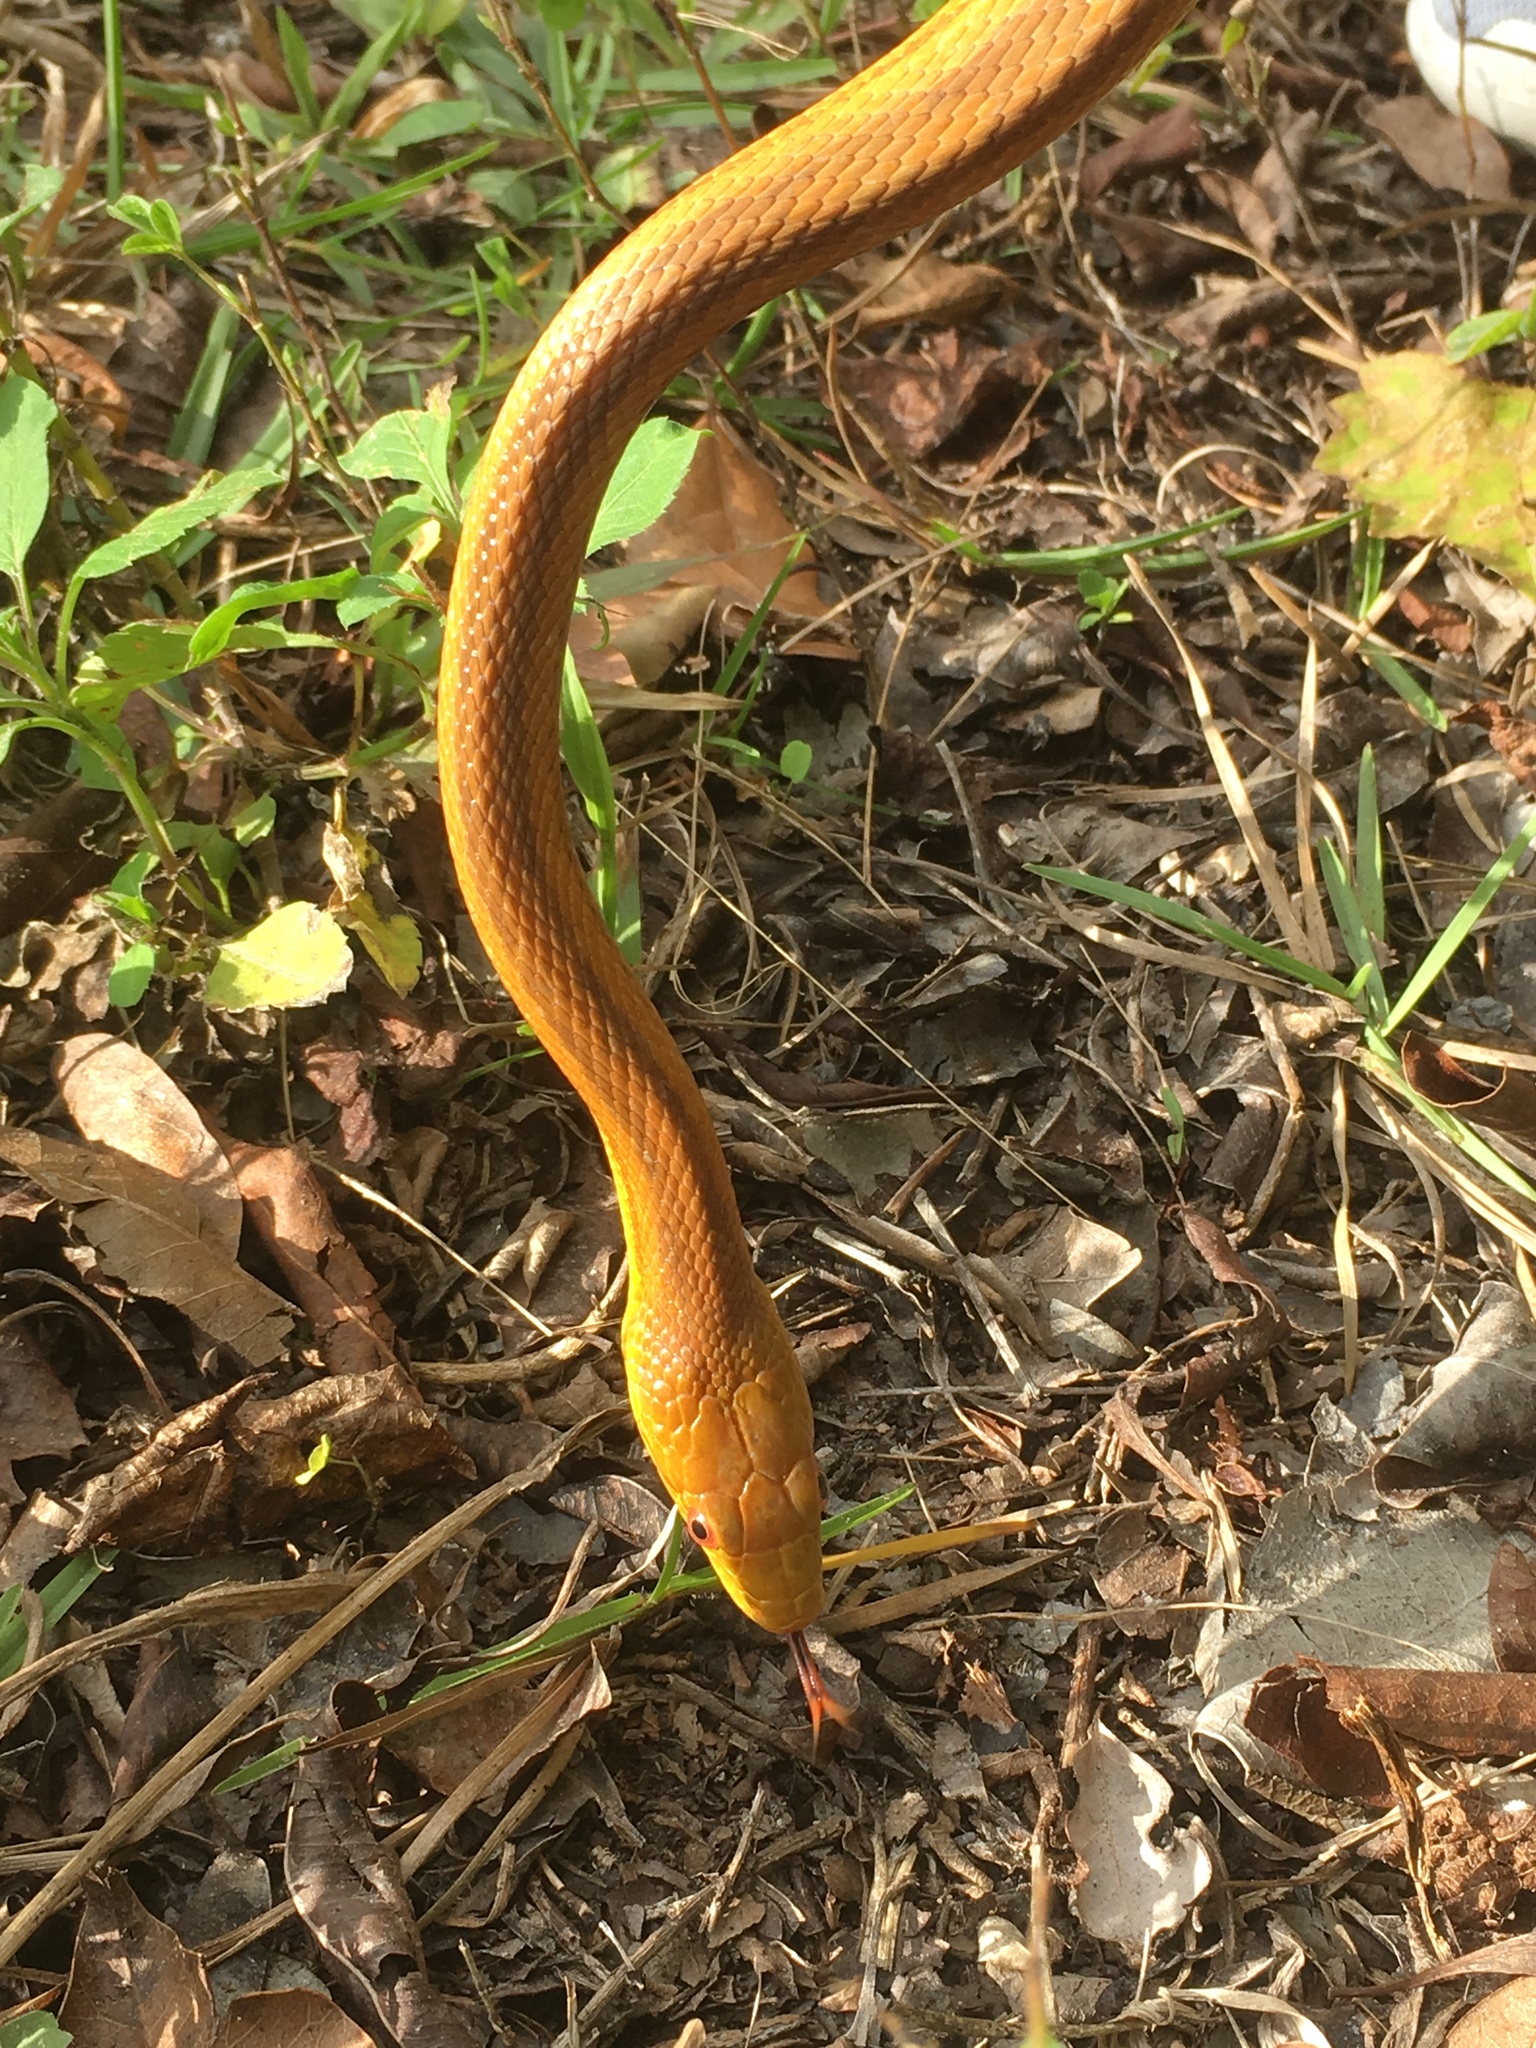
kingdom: Animalia
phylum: Chordata
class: Squamata
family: Colubridae
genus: Pantherophis
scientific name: Pantherophis alleghaniensis
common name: Eastern rat snake
